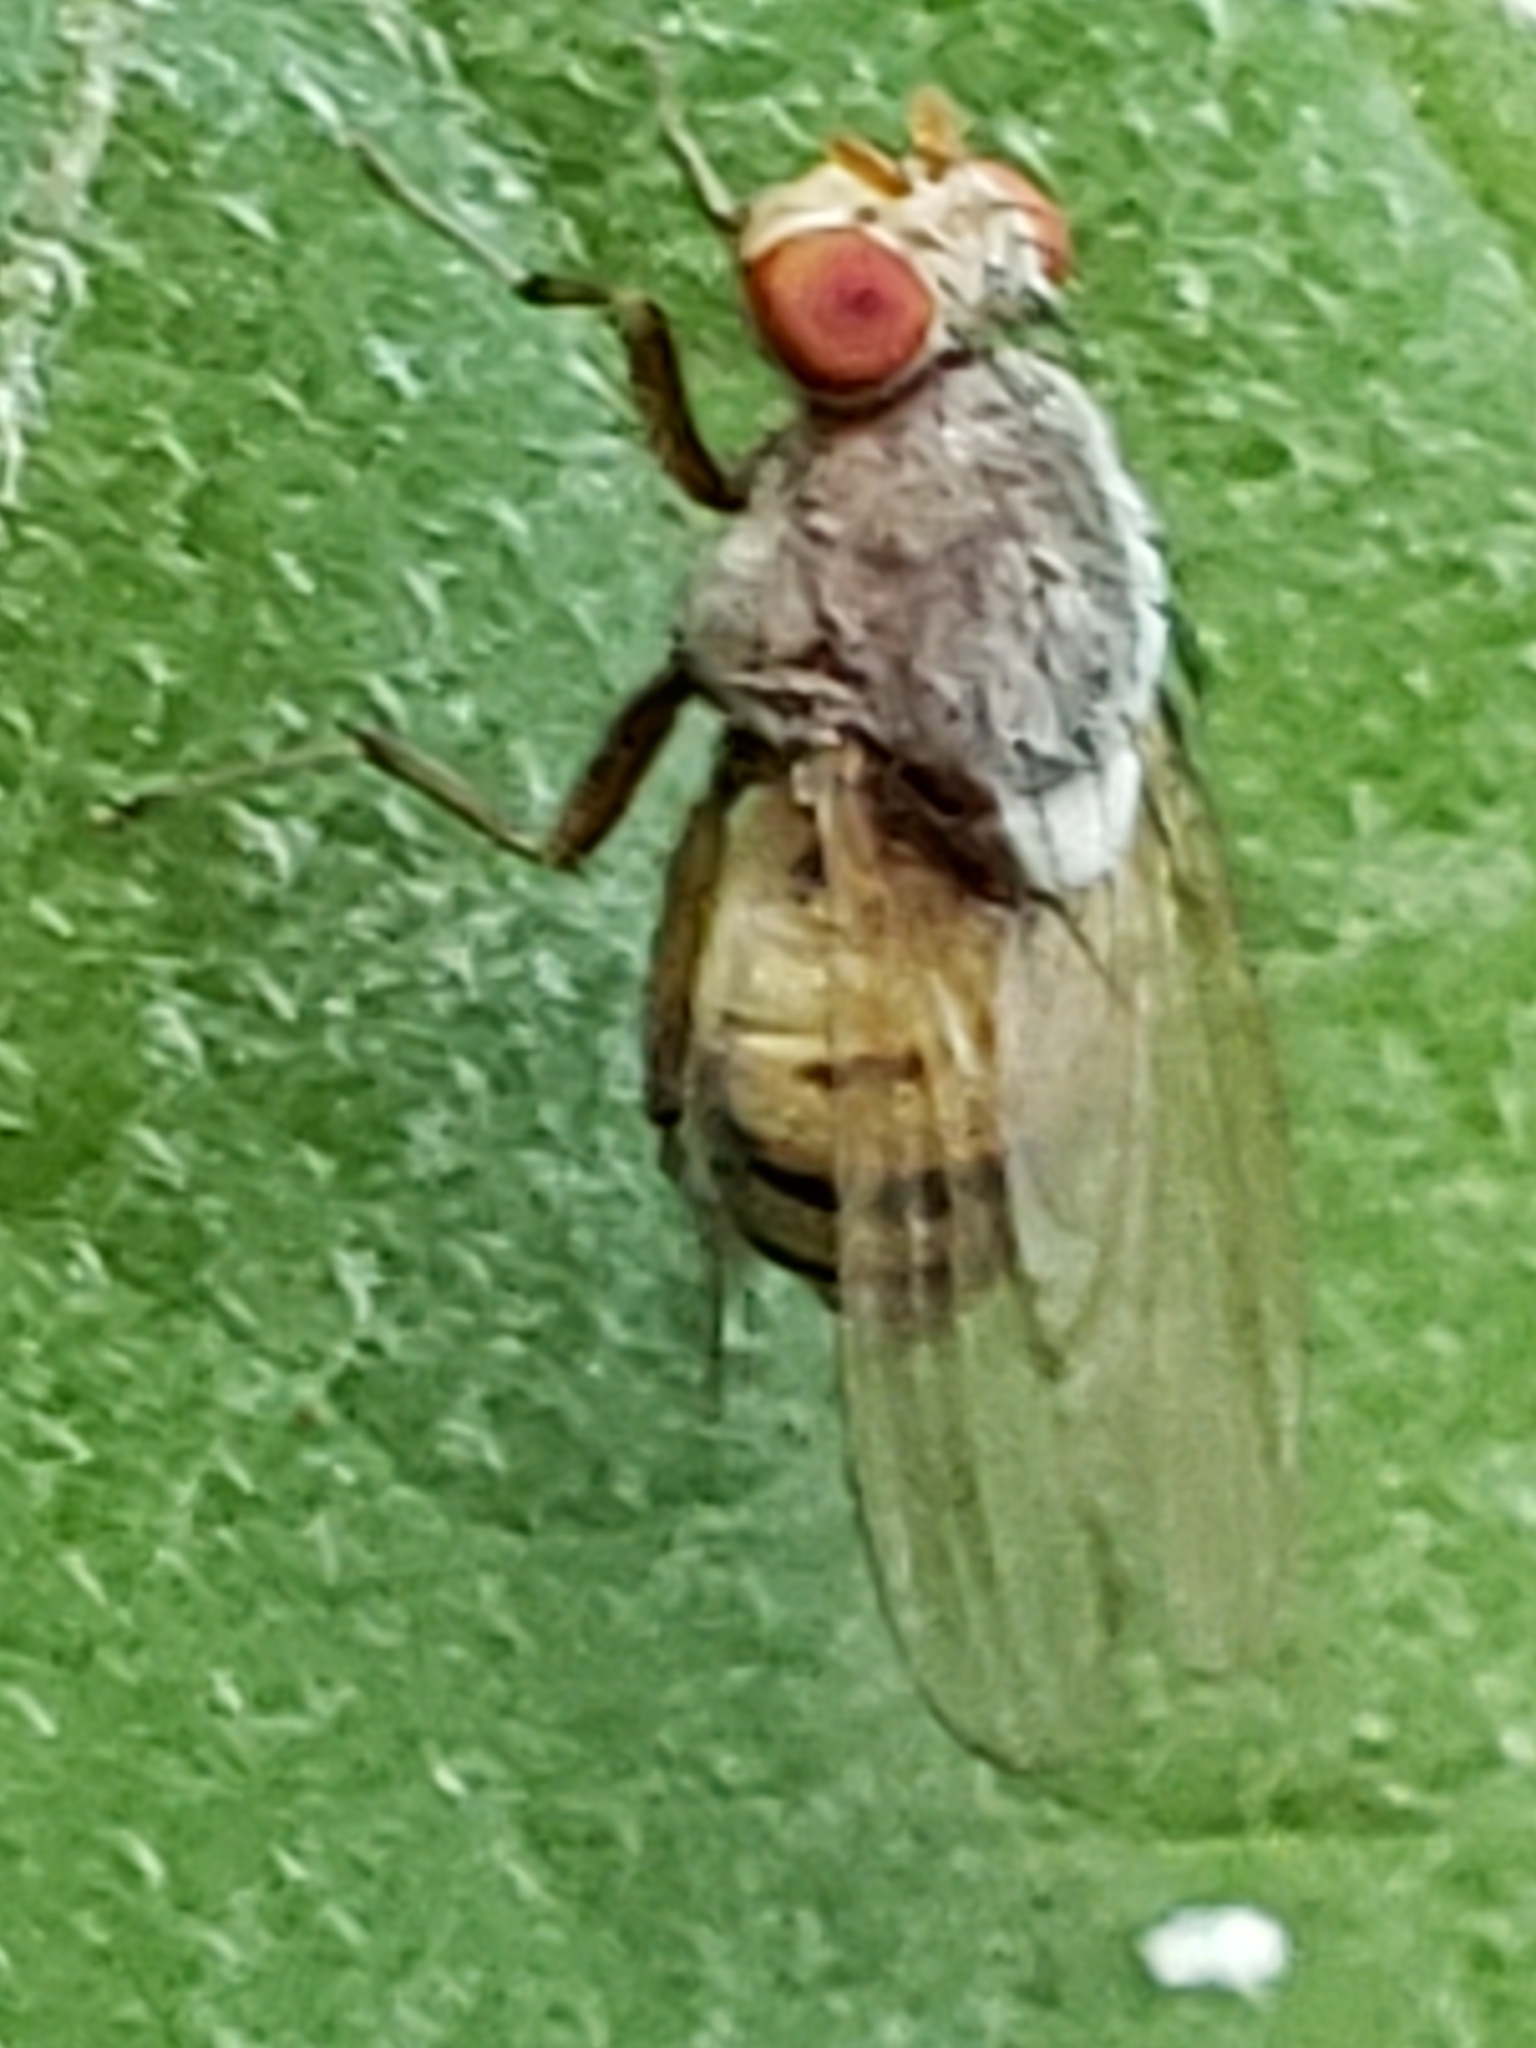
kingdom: Animalia
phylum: Arthropoda
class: Insecta
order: Diptera
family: Lauxaniidae
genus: Minettia
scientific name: Minettia magna
